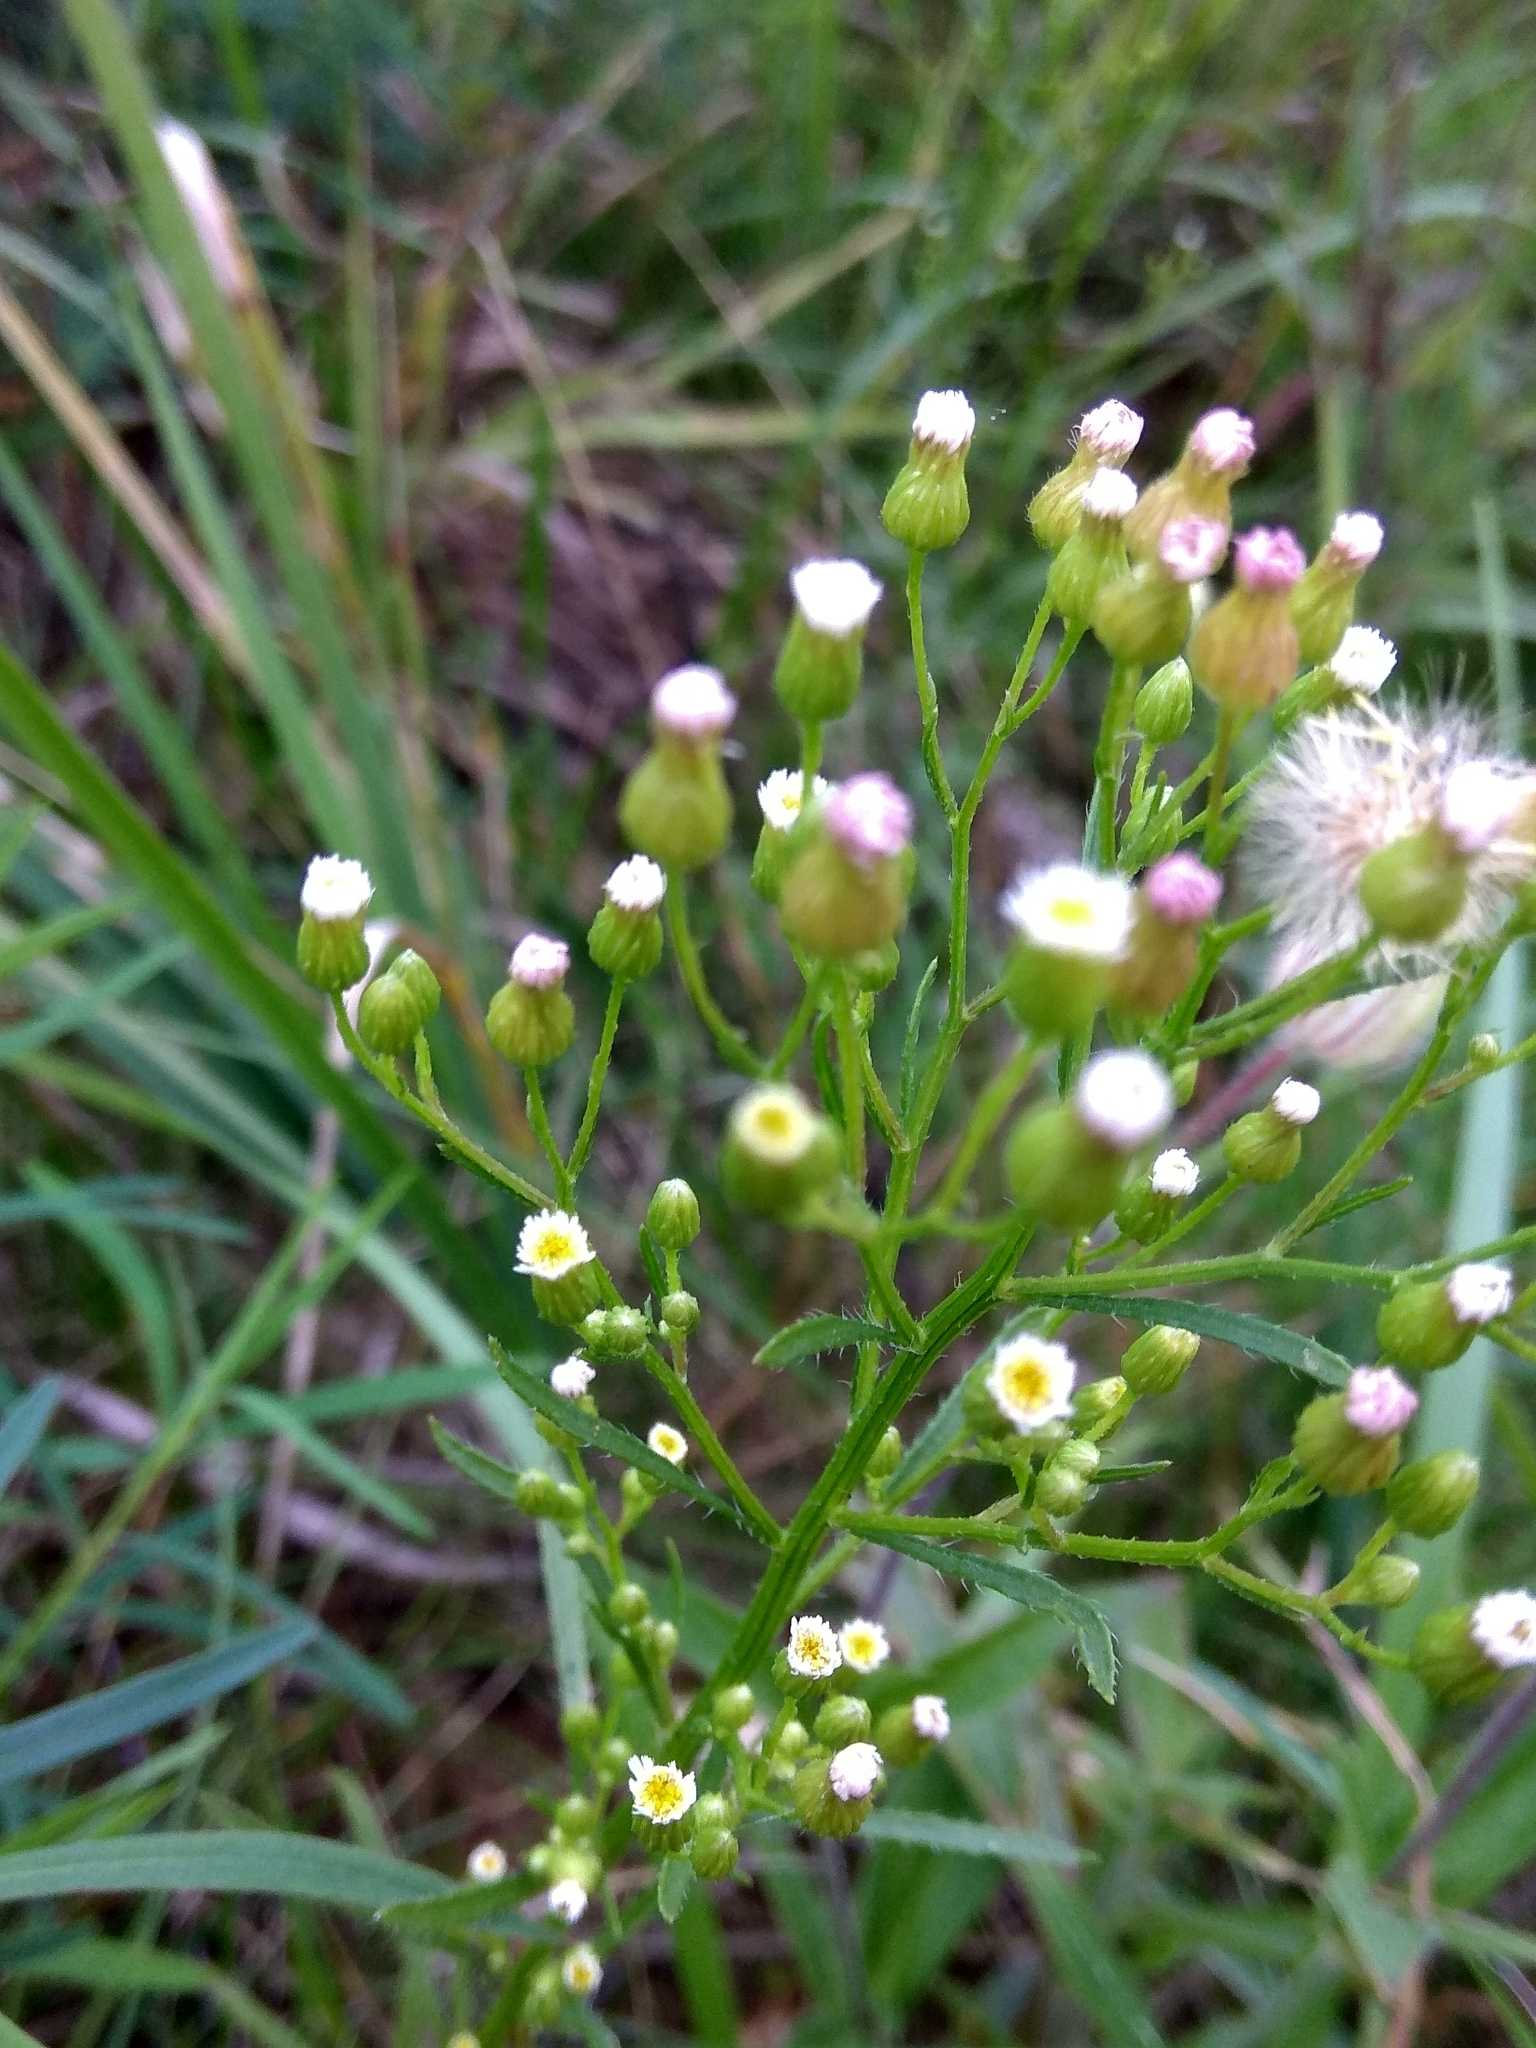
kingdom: Plantae
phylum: Tracheophyta
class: Magnoliopsida
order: Asterales
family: Asteraceae
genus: Erigeron
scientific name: Erigeron canadensis
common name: Canadian fleabane
